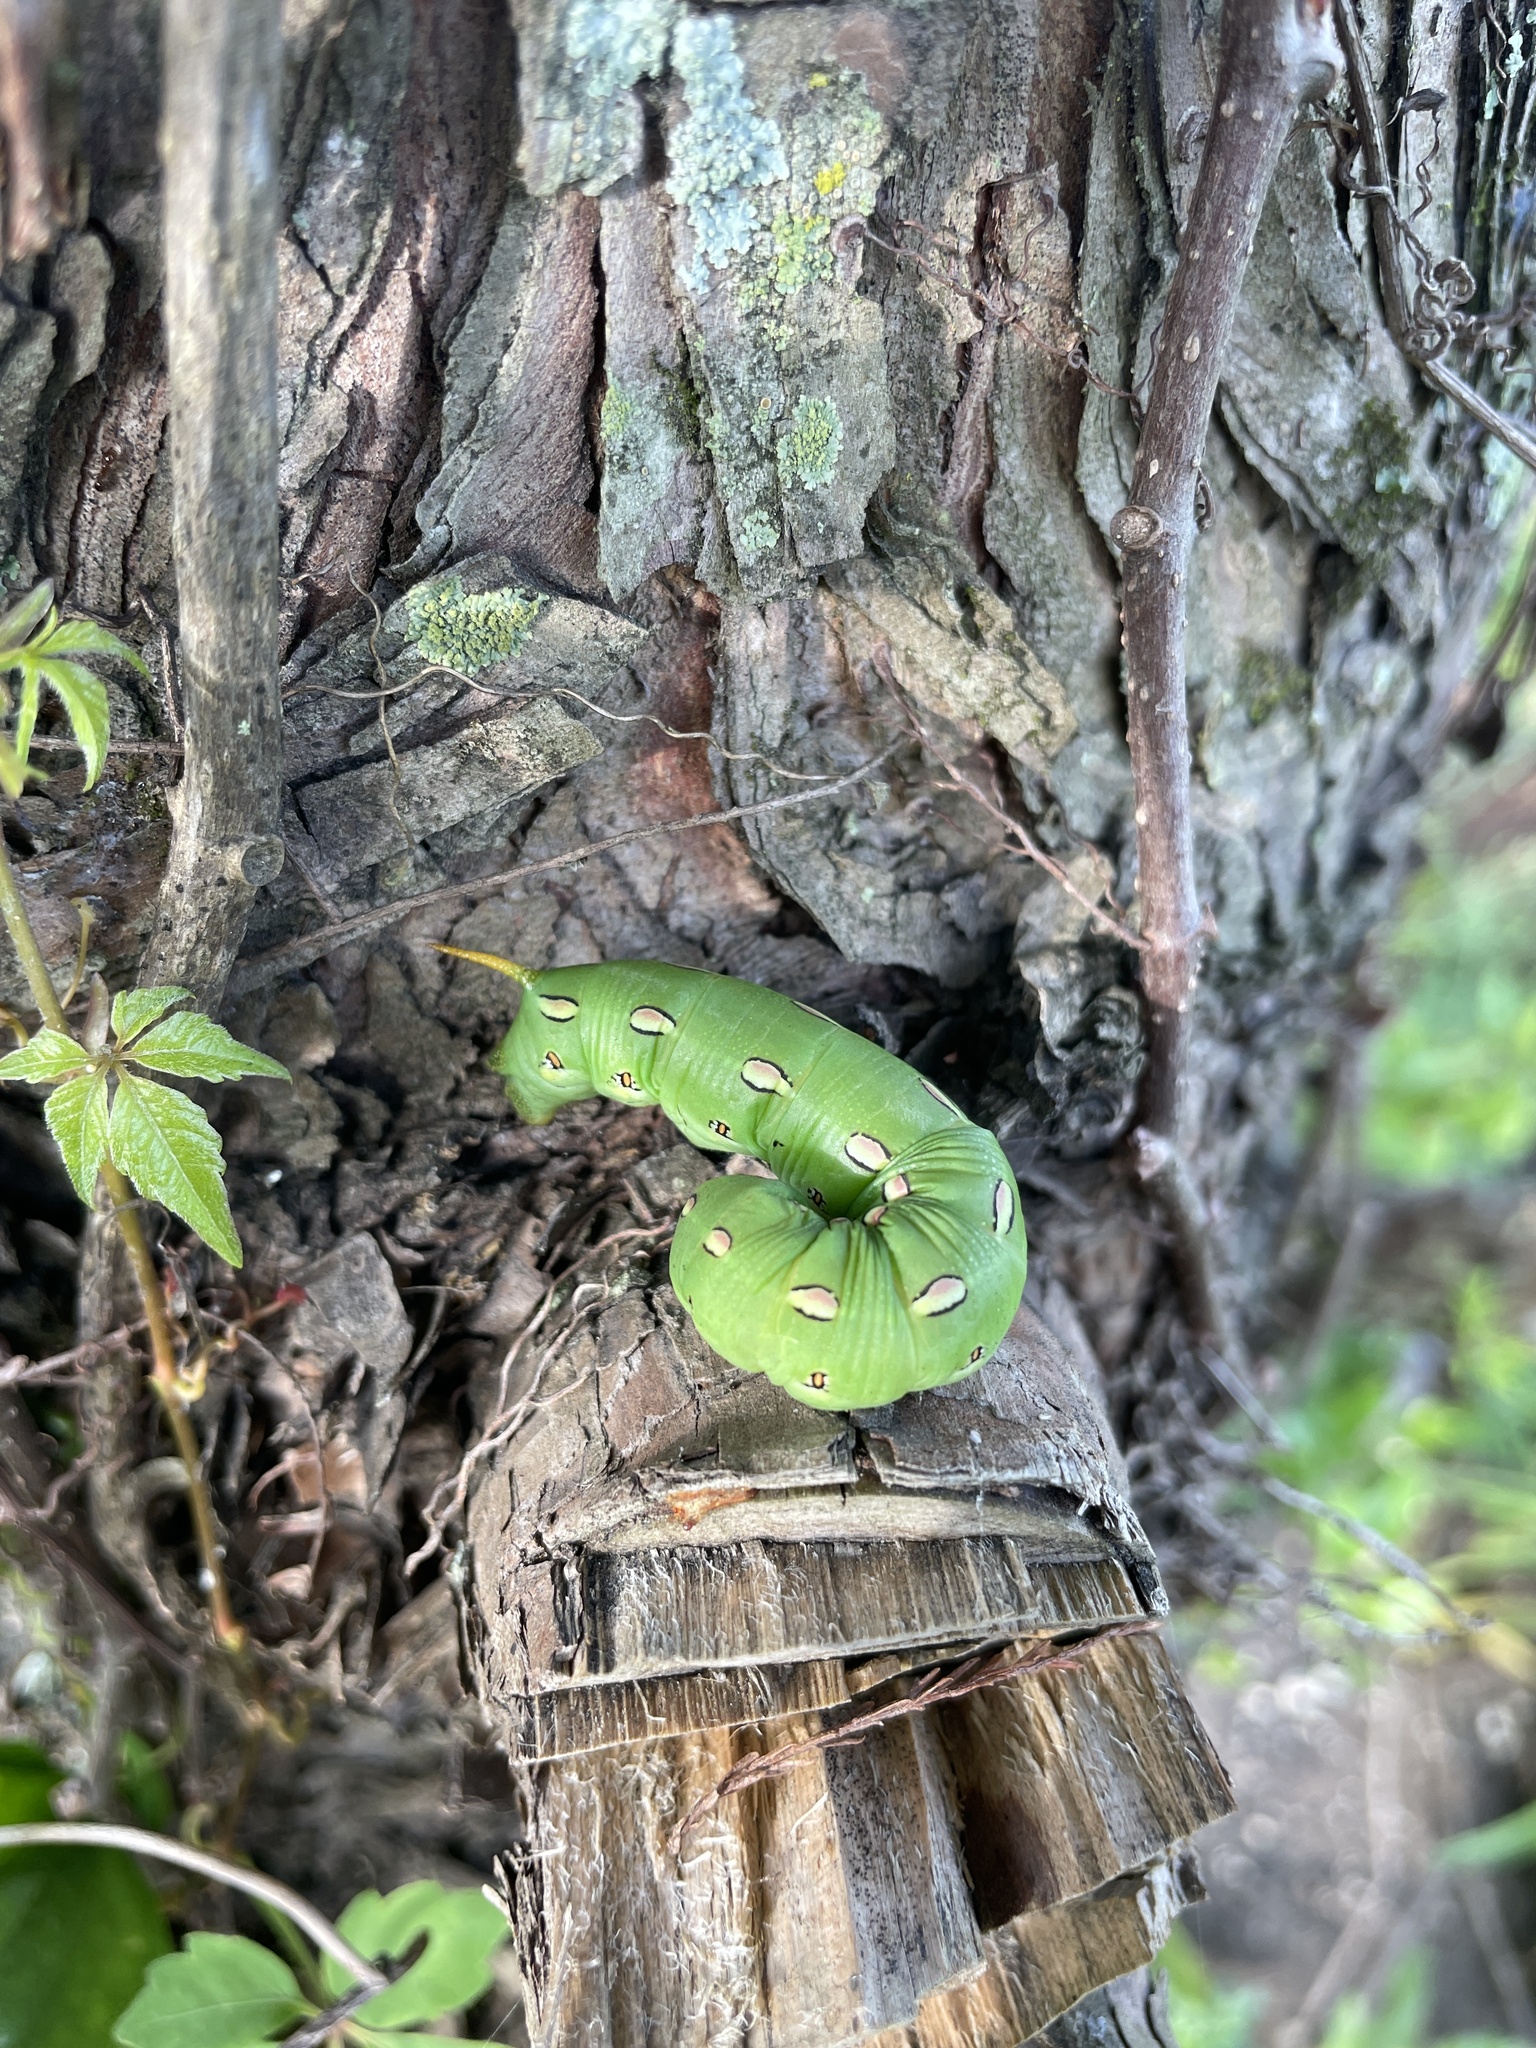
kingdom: Animalia
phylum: Arthropoda
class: Insecta
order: Lepidoptera
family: Sphingidae
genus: Hyles
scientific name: Hyles lineata
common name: White-lined sphinx
